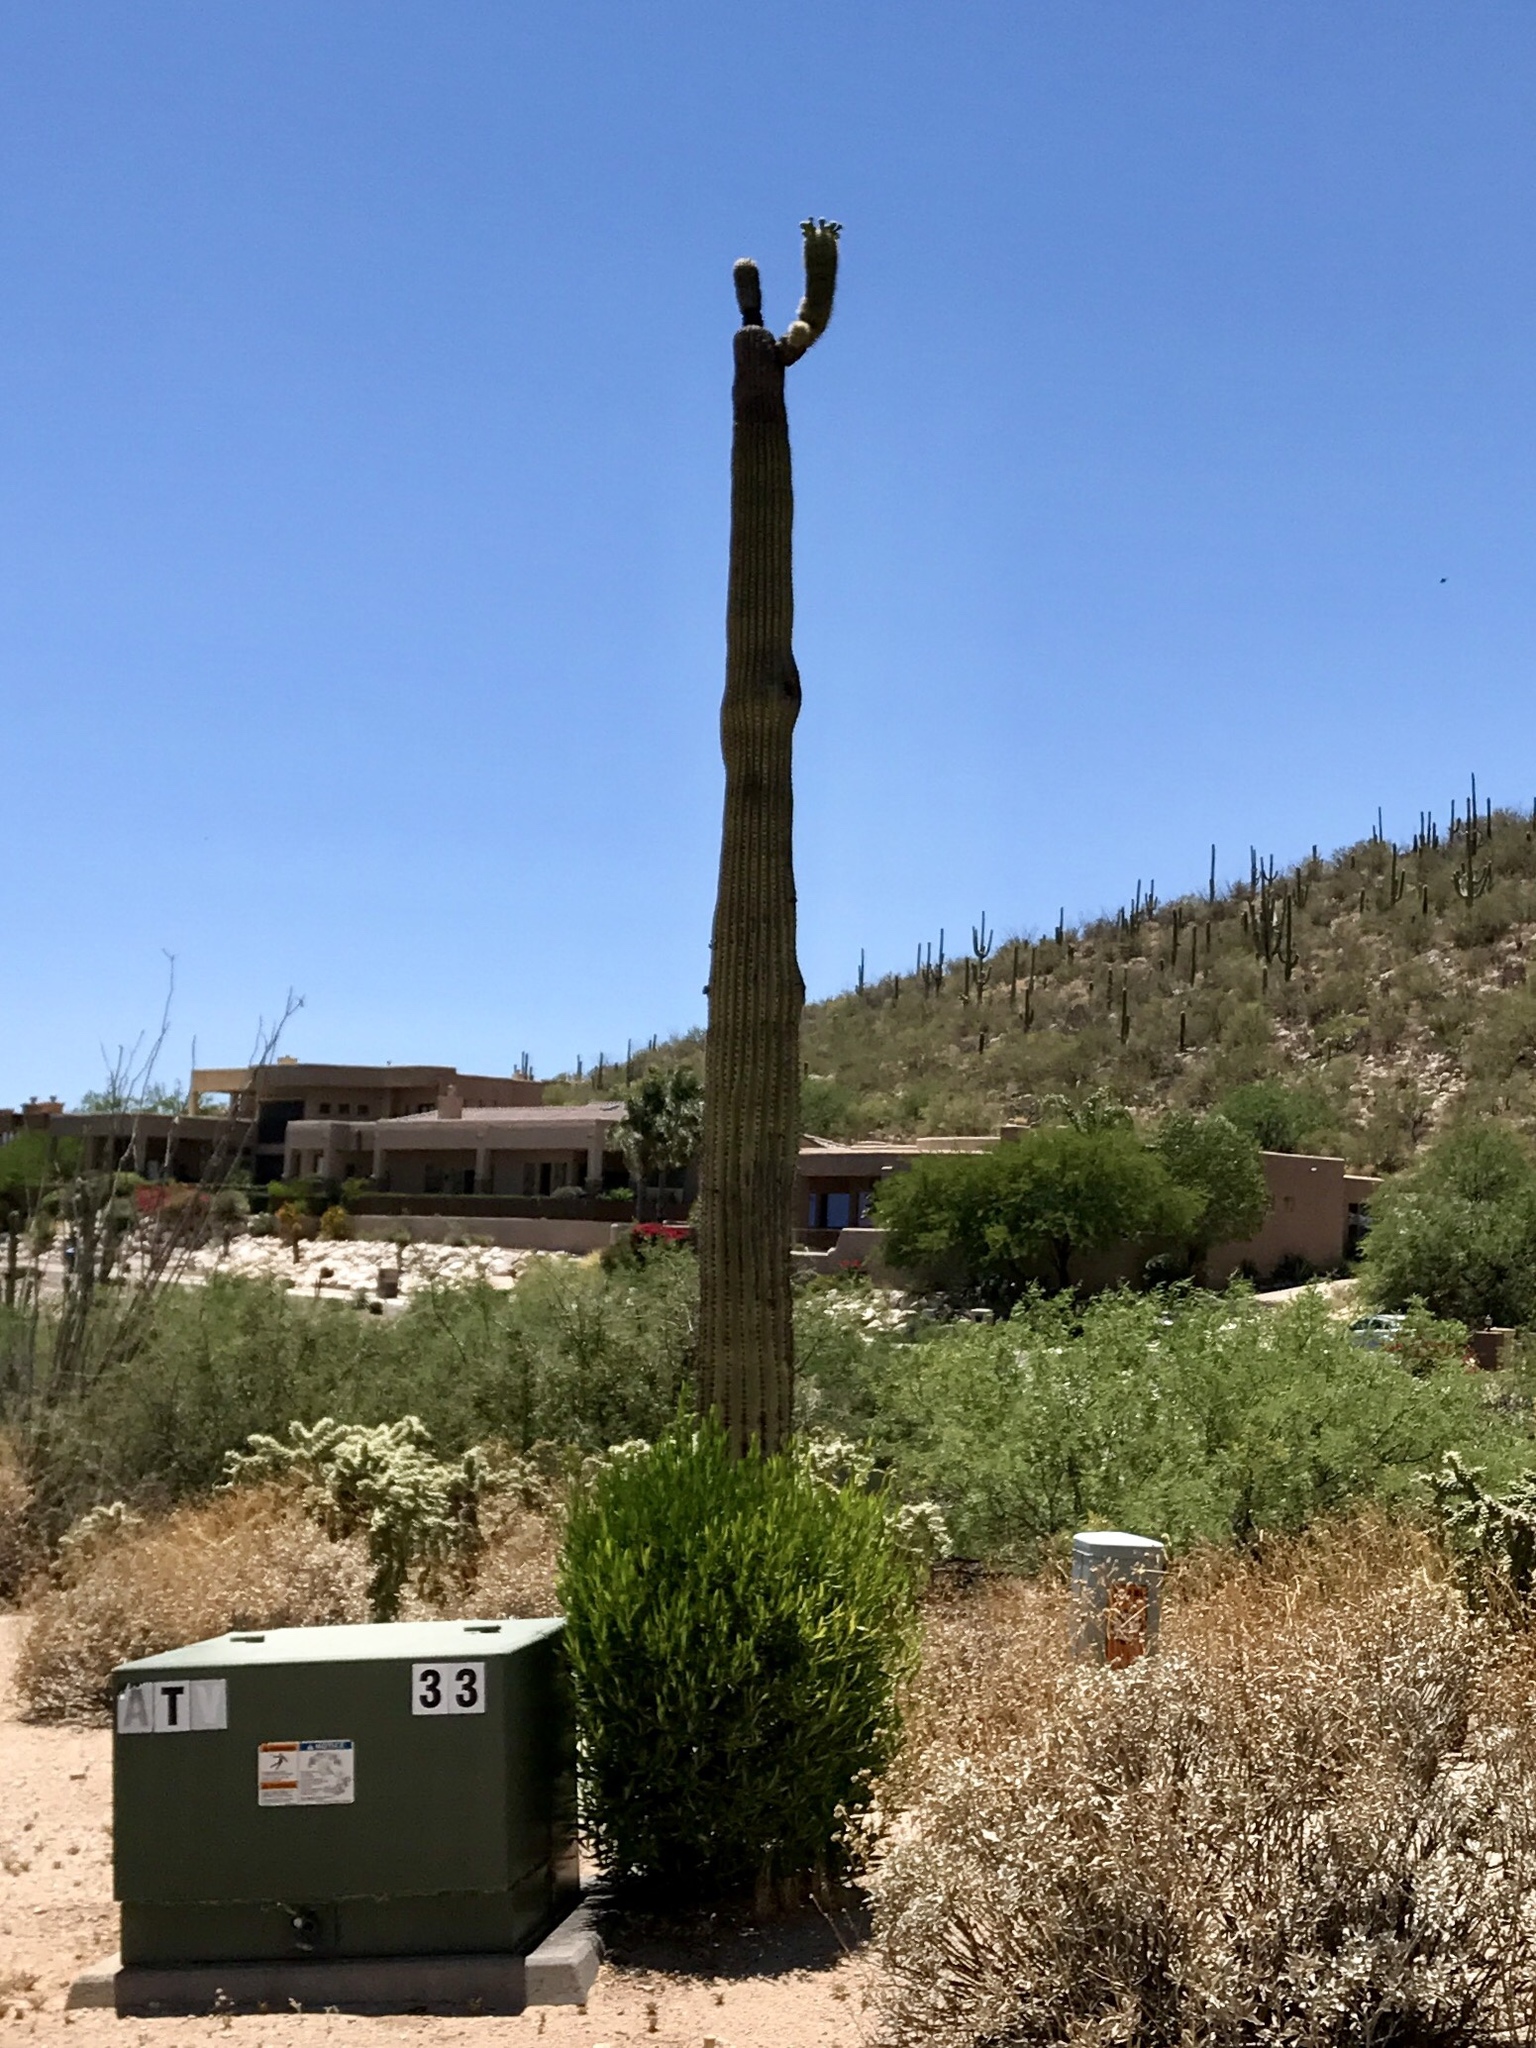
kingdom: Plantae
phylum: Tracheophyta
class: Magnoliopsida
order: Caryophyllales
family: Cactaceae
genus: Carnegiea
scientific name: Carnegiea gigantea
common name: Saguaro
